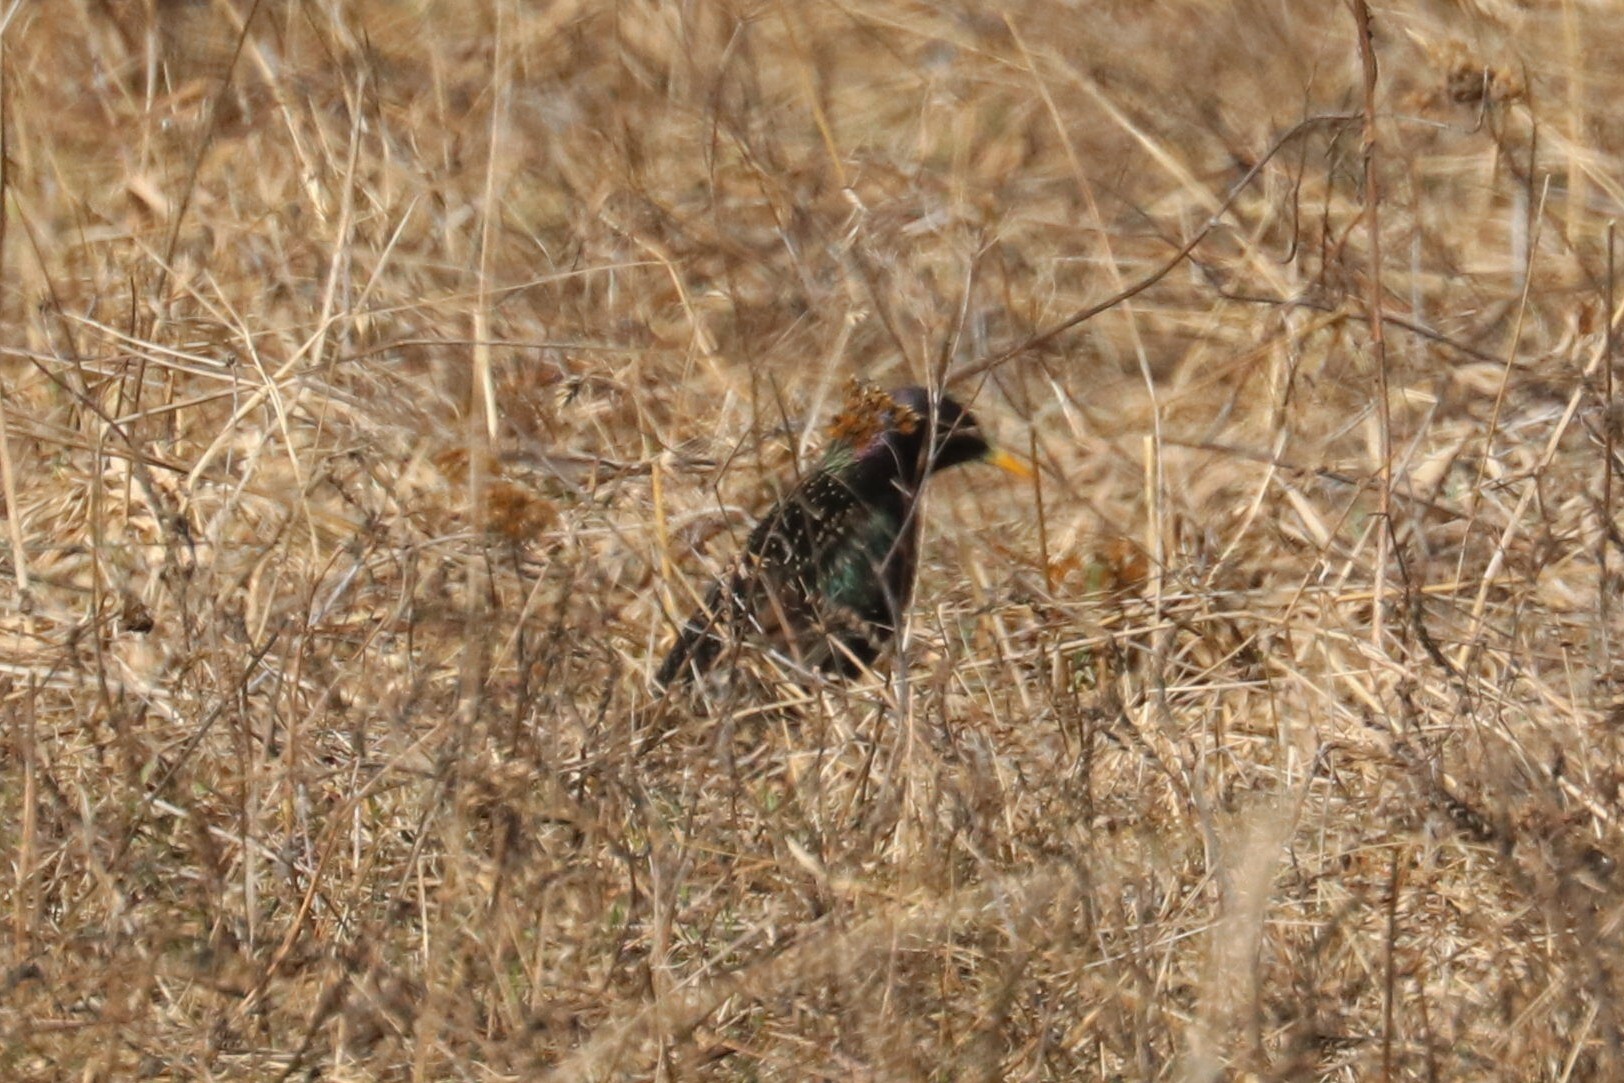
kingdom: Animalia
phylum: Chordata
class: Aves
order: Passeriformes
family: Sturnidae
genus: Sturnus
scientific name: Sturnus vulgaris
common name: Common starling
